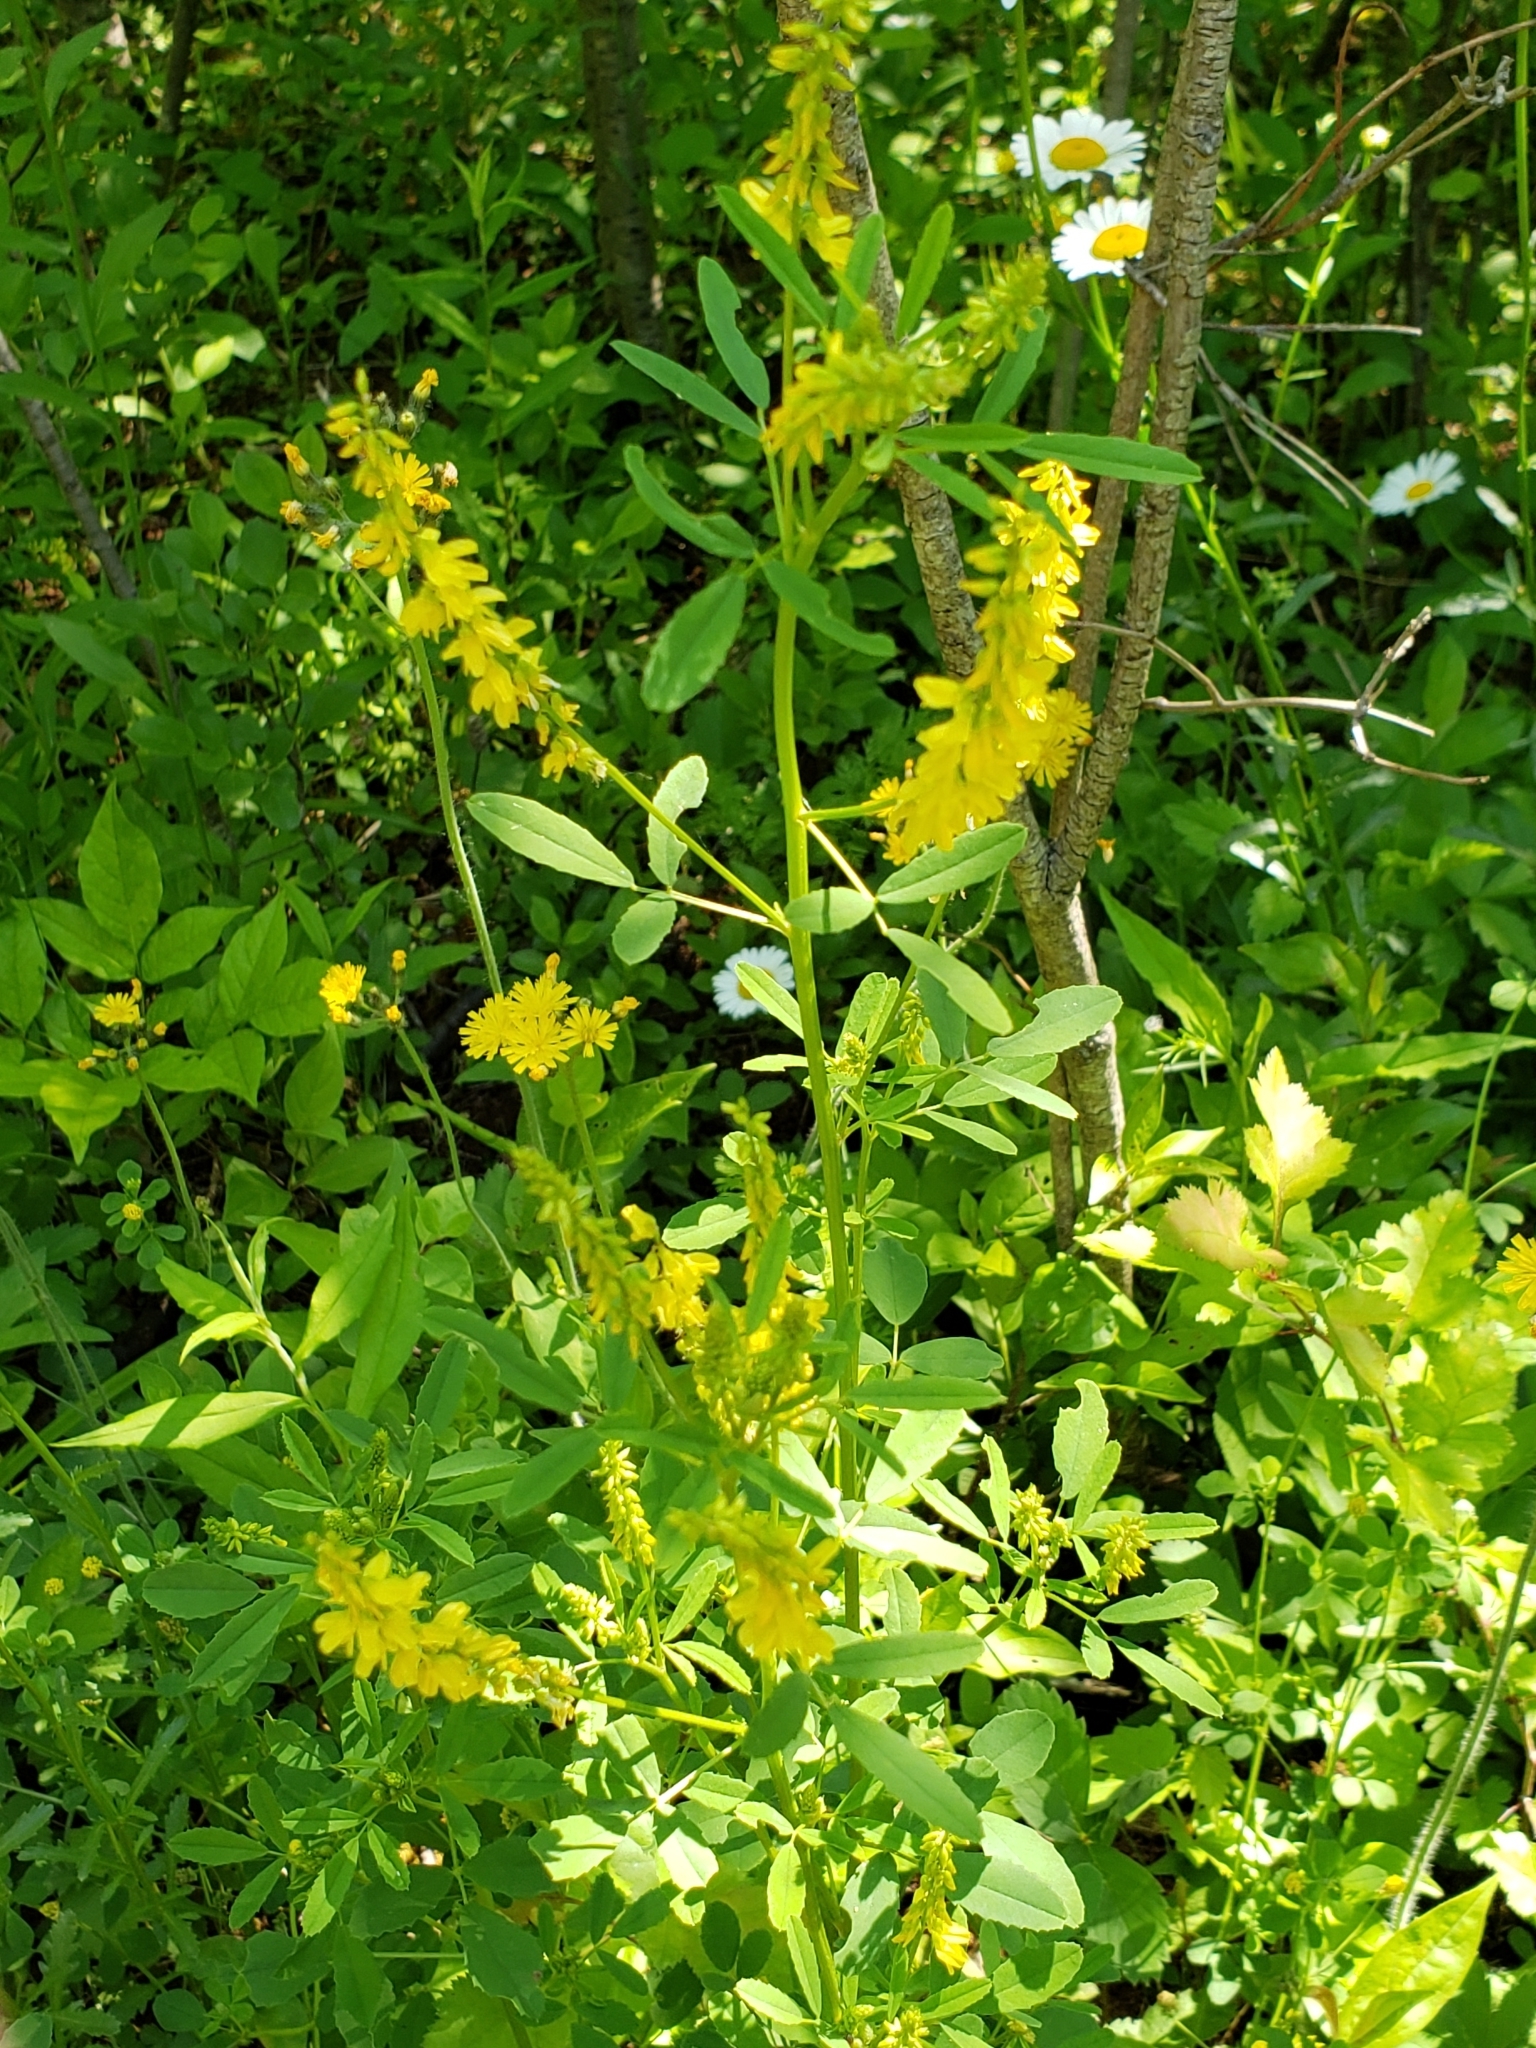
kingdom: Plantae
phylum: Tracheophyta
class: Magnoliopsida
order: Fabales
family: Fabaceae
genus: Melilotus
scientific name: Melilotus officinalis
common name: Sweetclover
